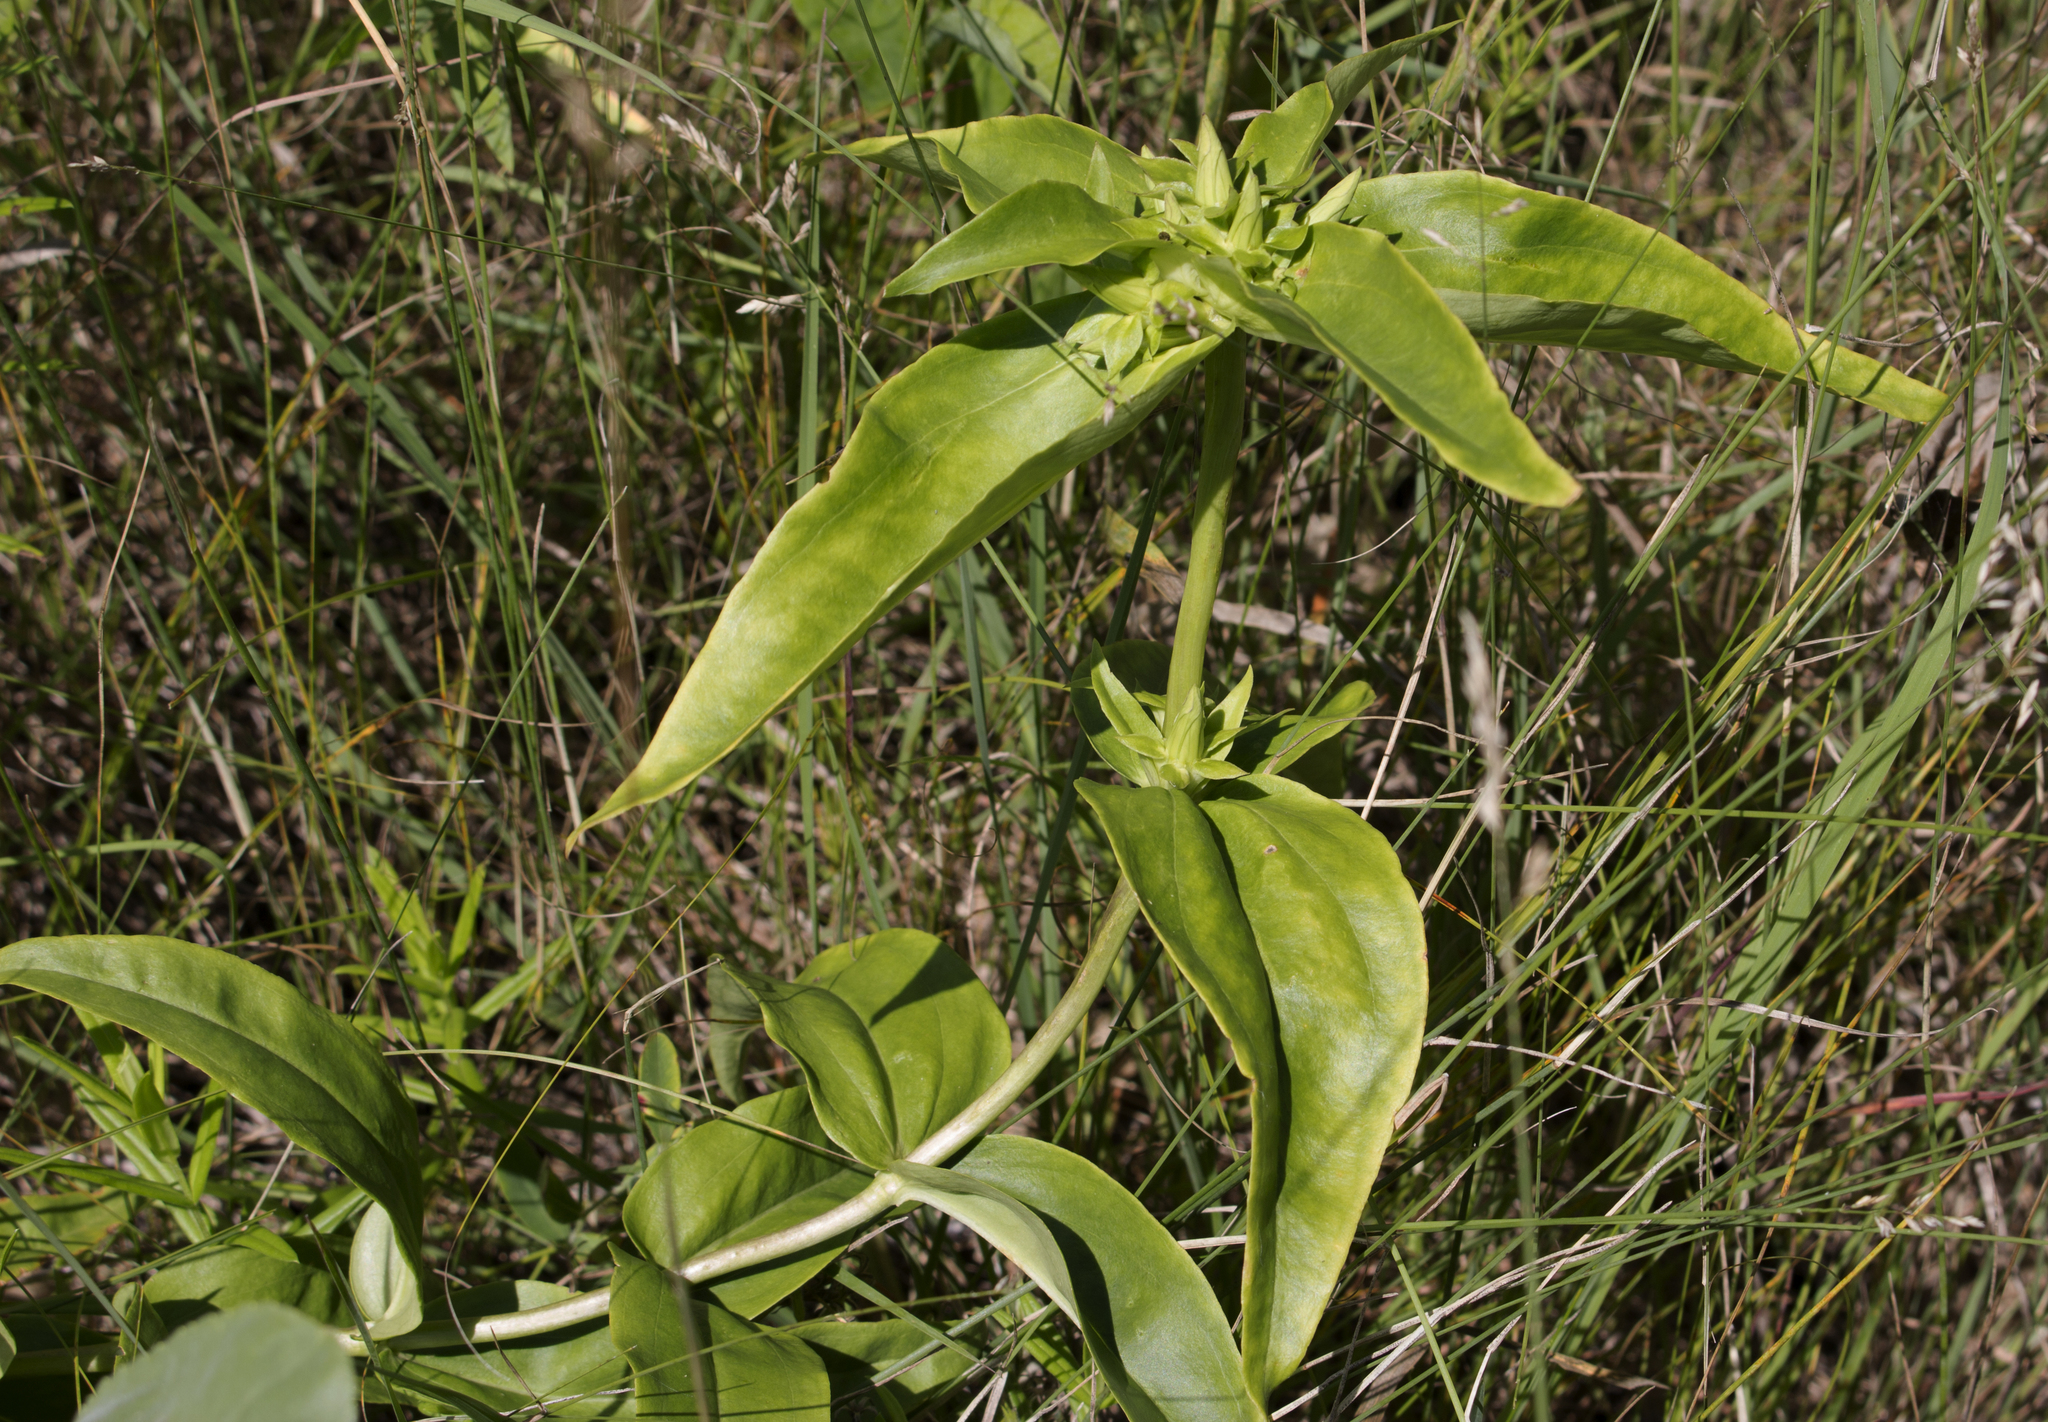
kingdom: Plantae
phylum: Tracheophyta
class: Magnoliopsida
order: Gentianales
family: Gentianaceae
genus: Gentiana
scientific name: Gentiana alba
